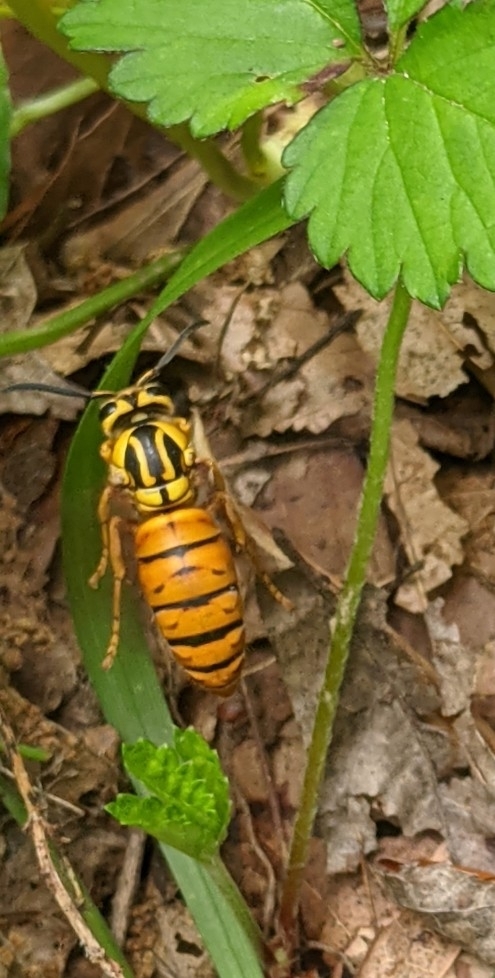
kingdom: Animalia
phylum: Arthropoda
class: Insecta
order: Hymenoptera
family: Vespidae
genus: Vespula
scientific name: Vespula squamosa
